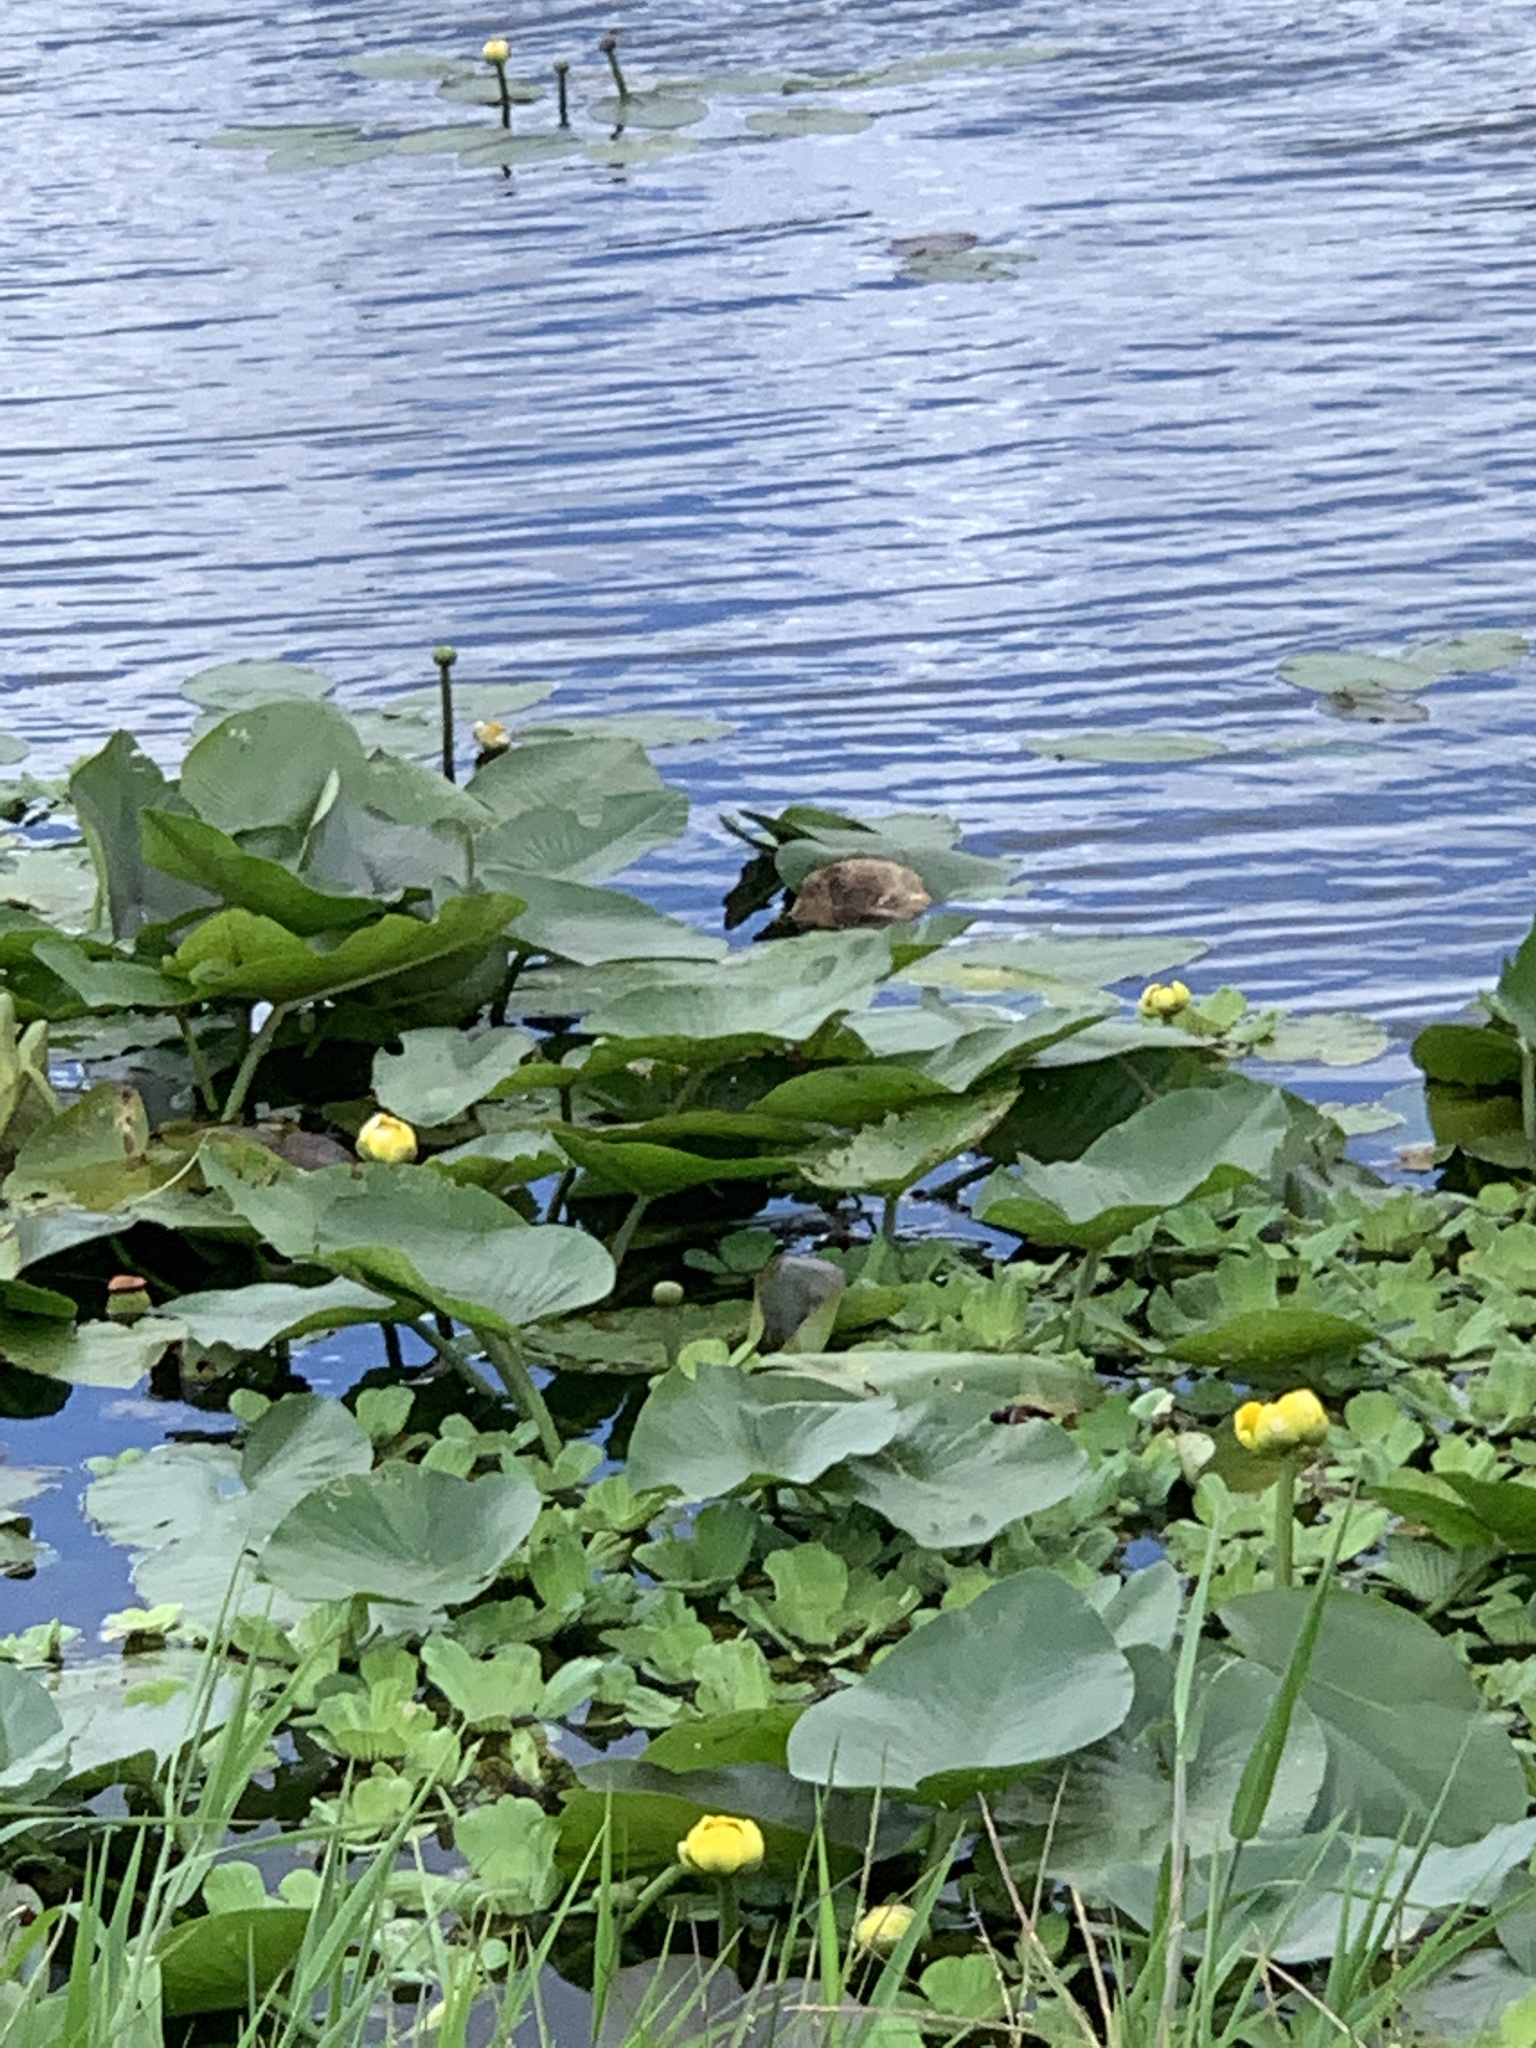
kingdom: Plantae
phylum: Tracheophyta
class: Magnoliopsida
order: Nymphaeales
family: Nymphaeaceae
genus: Nuphar
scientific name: Nuphar advena
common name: Spatter-dock
